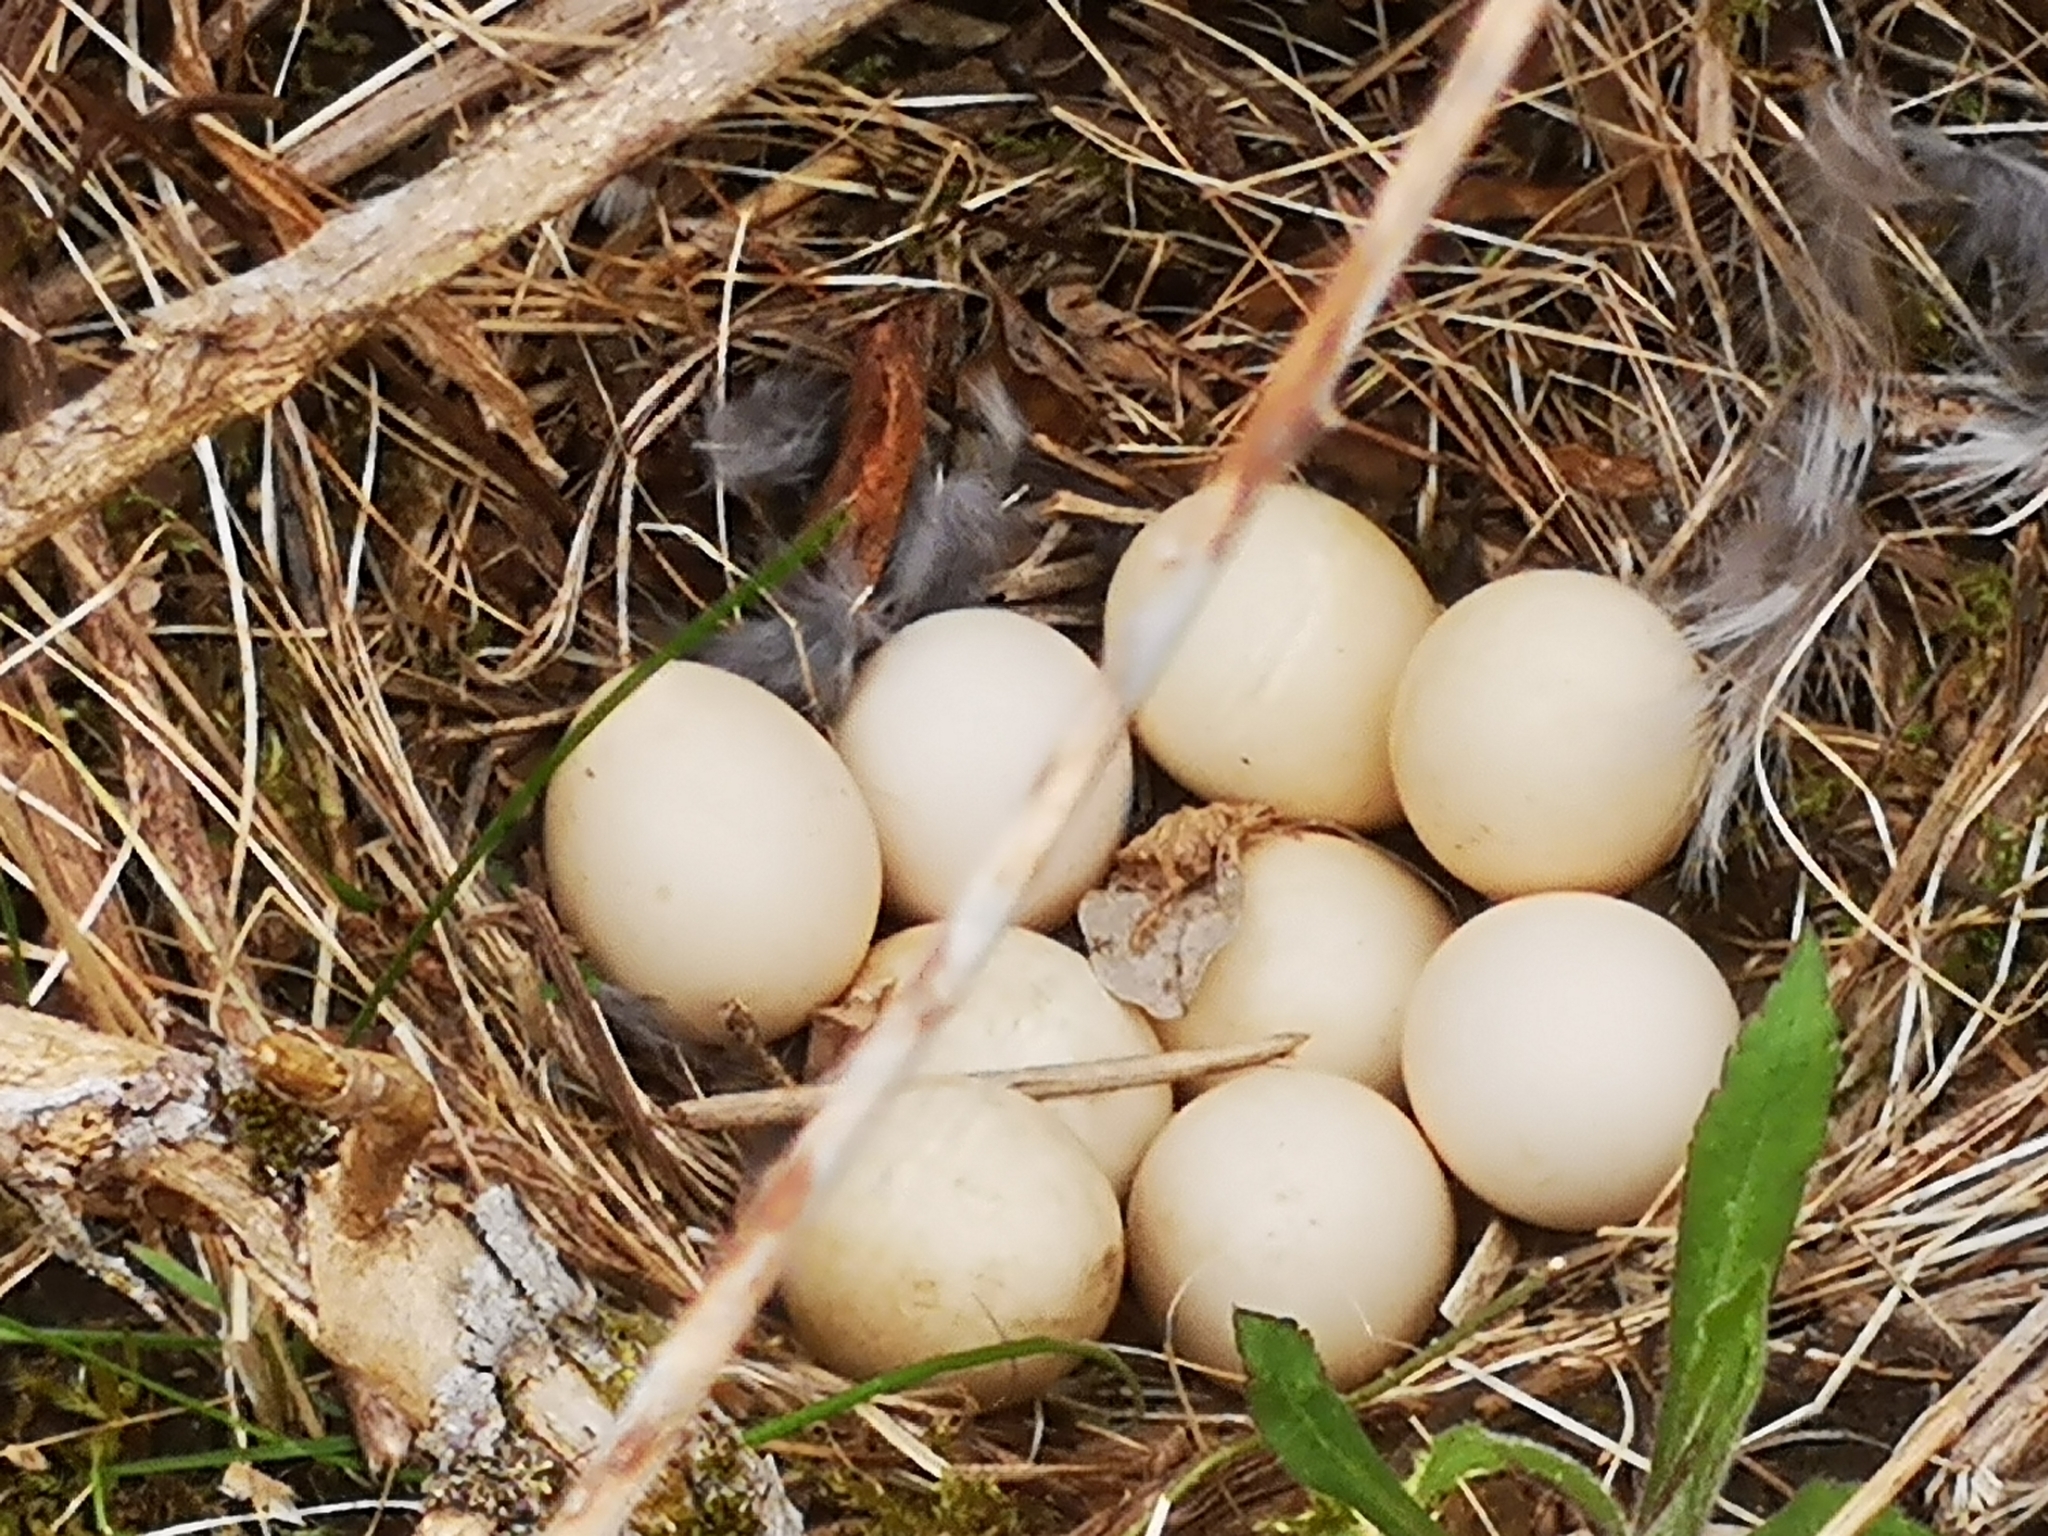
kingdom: Animalia
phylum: Chordata
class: Aves
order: Galliformes
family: Phasianidae
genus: Bonasa
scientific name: Bonasa umbellus
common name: Ruffed grouse
